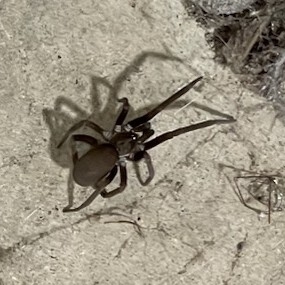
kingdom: Animalia
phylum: Arthropoda
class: Arachnida
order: Araneae
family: Filistatidae
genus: Kukulcania
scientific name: Kukulcania hibernalis
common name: Crevice weaver
